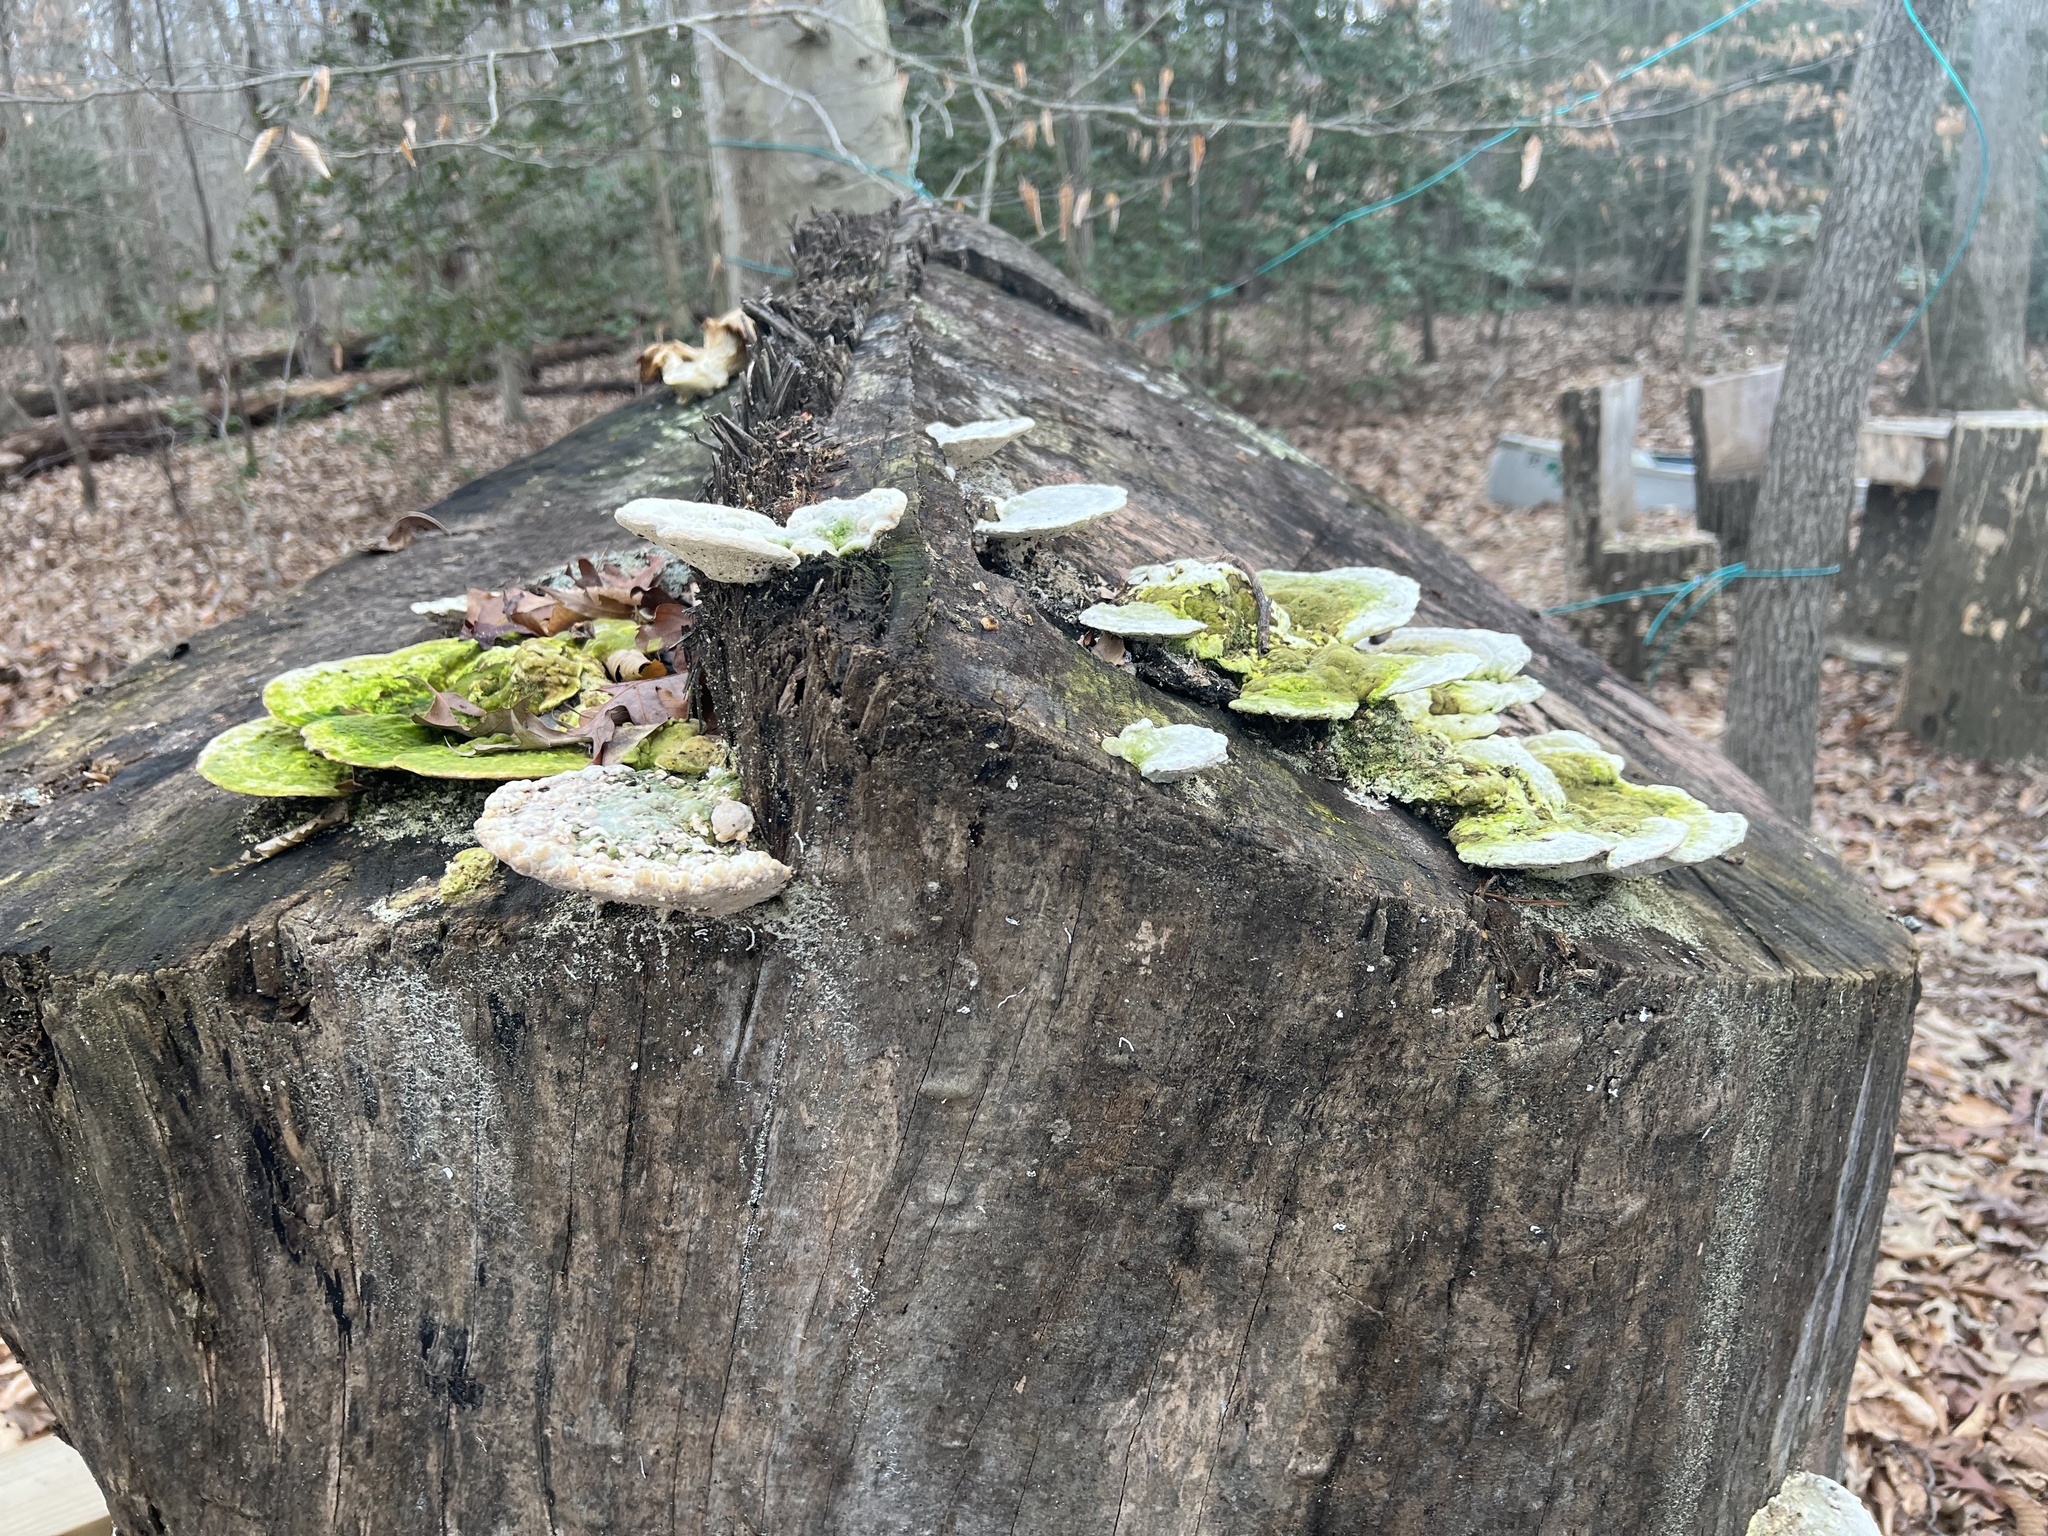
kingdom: Fungi
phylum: Basidiomycota
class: Agaricomycetes
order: Polyporales
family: Polyporaceae
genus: Trametes
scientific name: Trametes gibbosa
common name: Lumpy bracket
